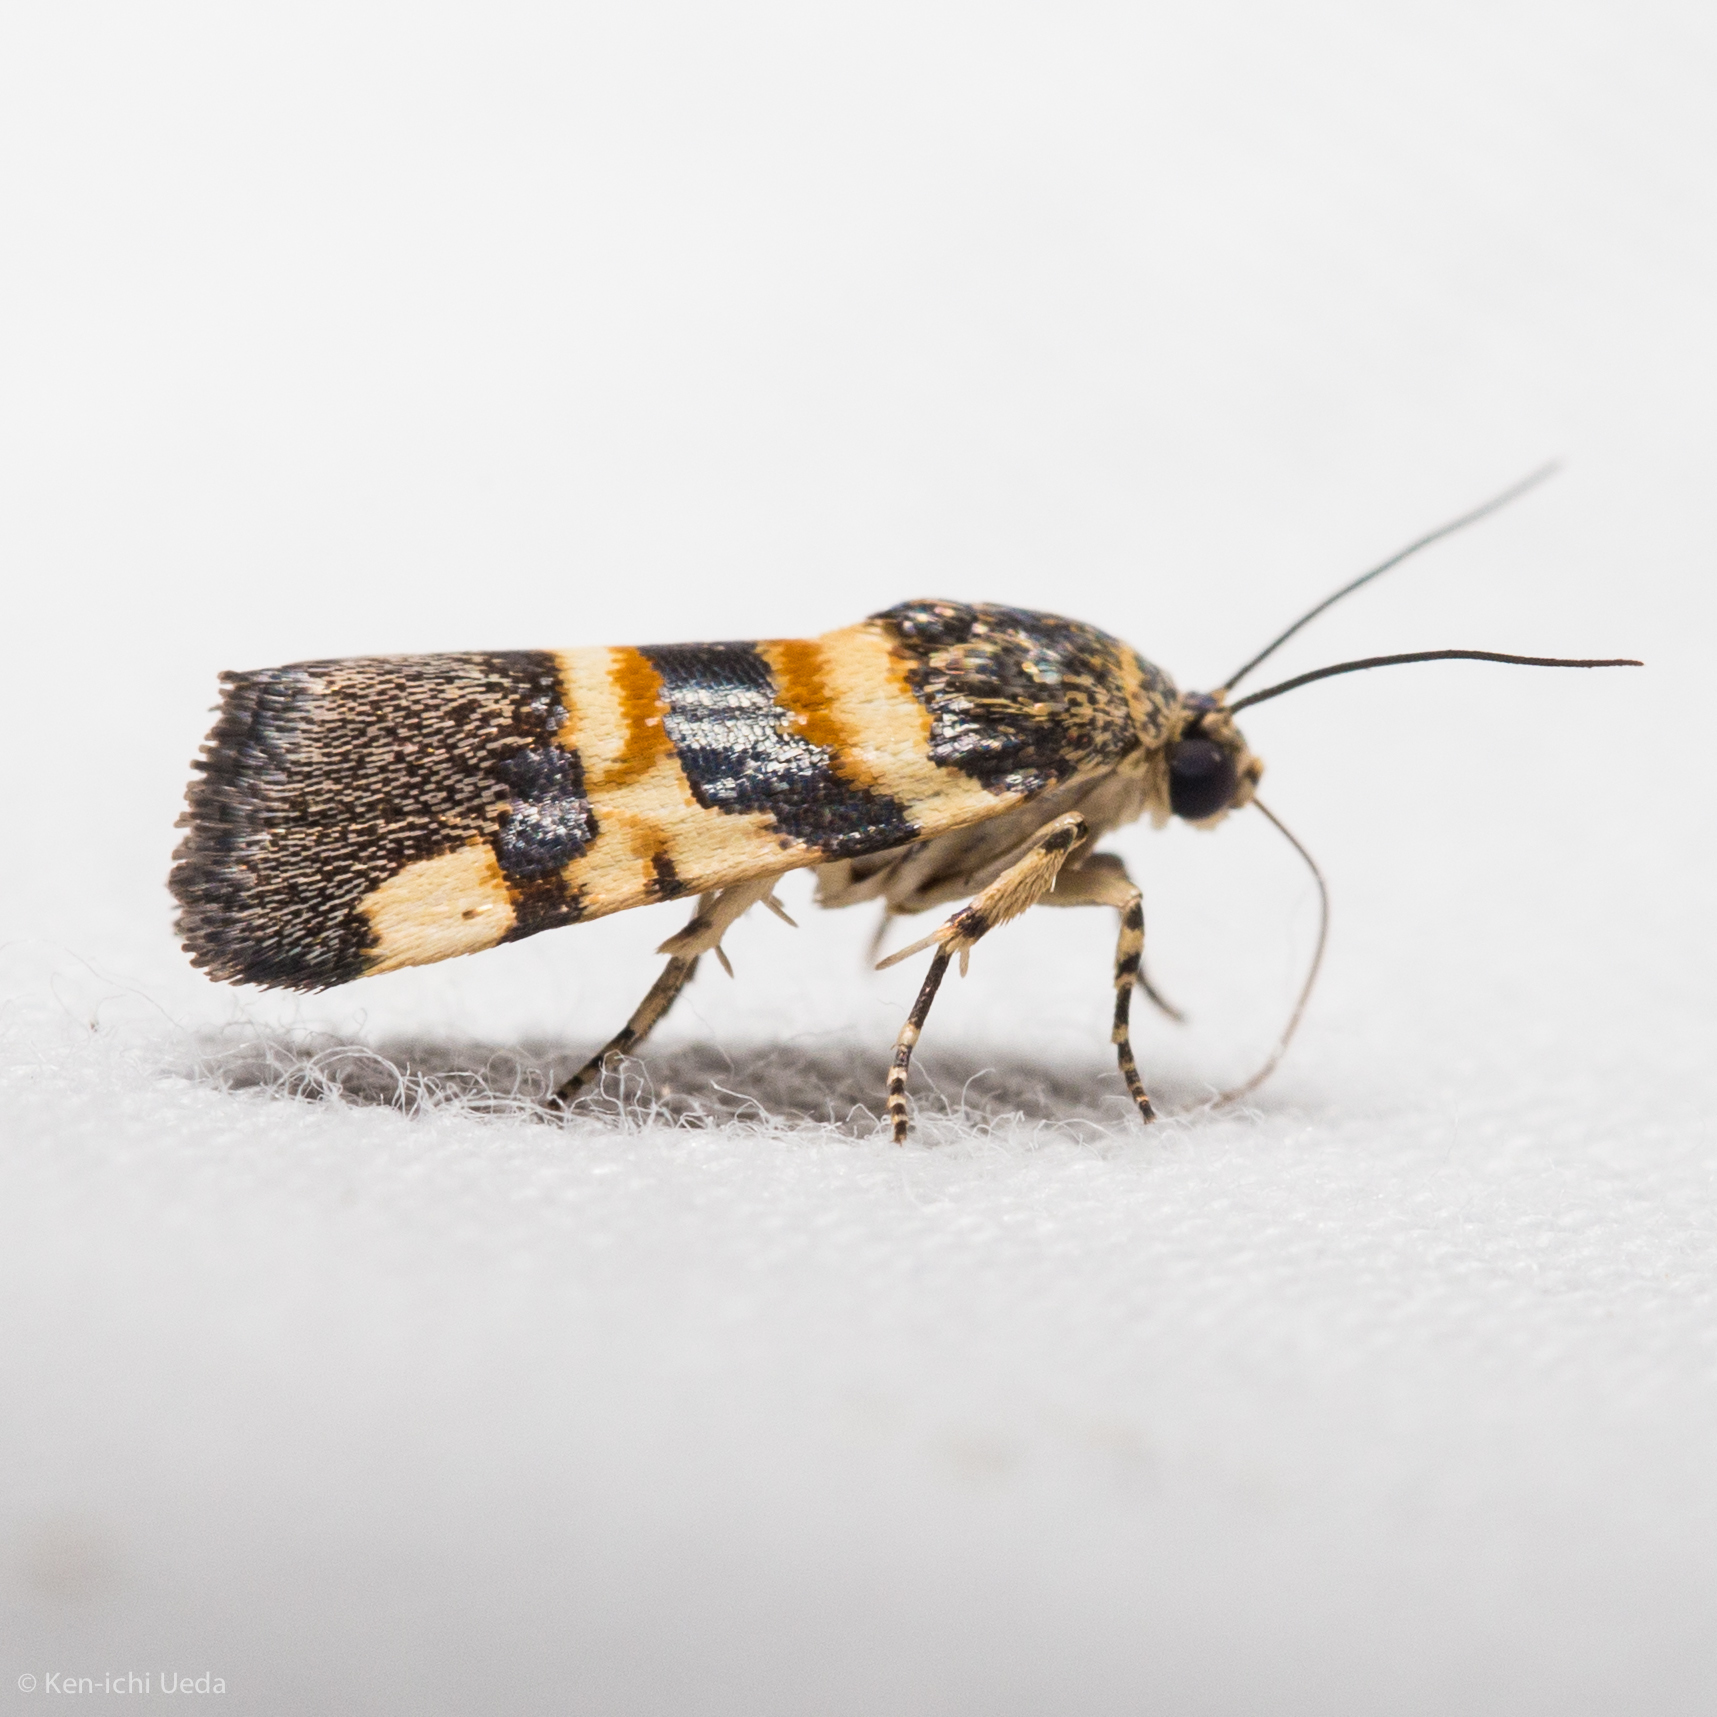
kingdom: Animalia
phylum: Arthropoda
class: Insecta
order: Lepidoptera
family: Noctuidae
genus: Spragueia
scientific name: Spragueia funeralis
